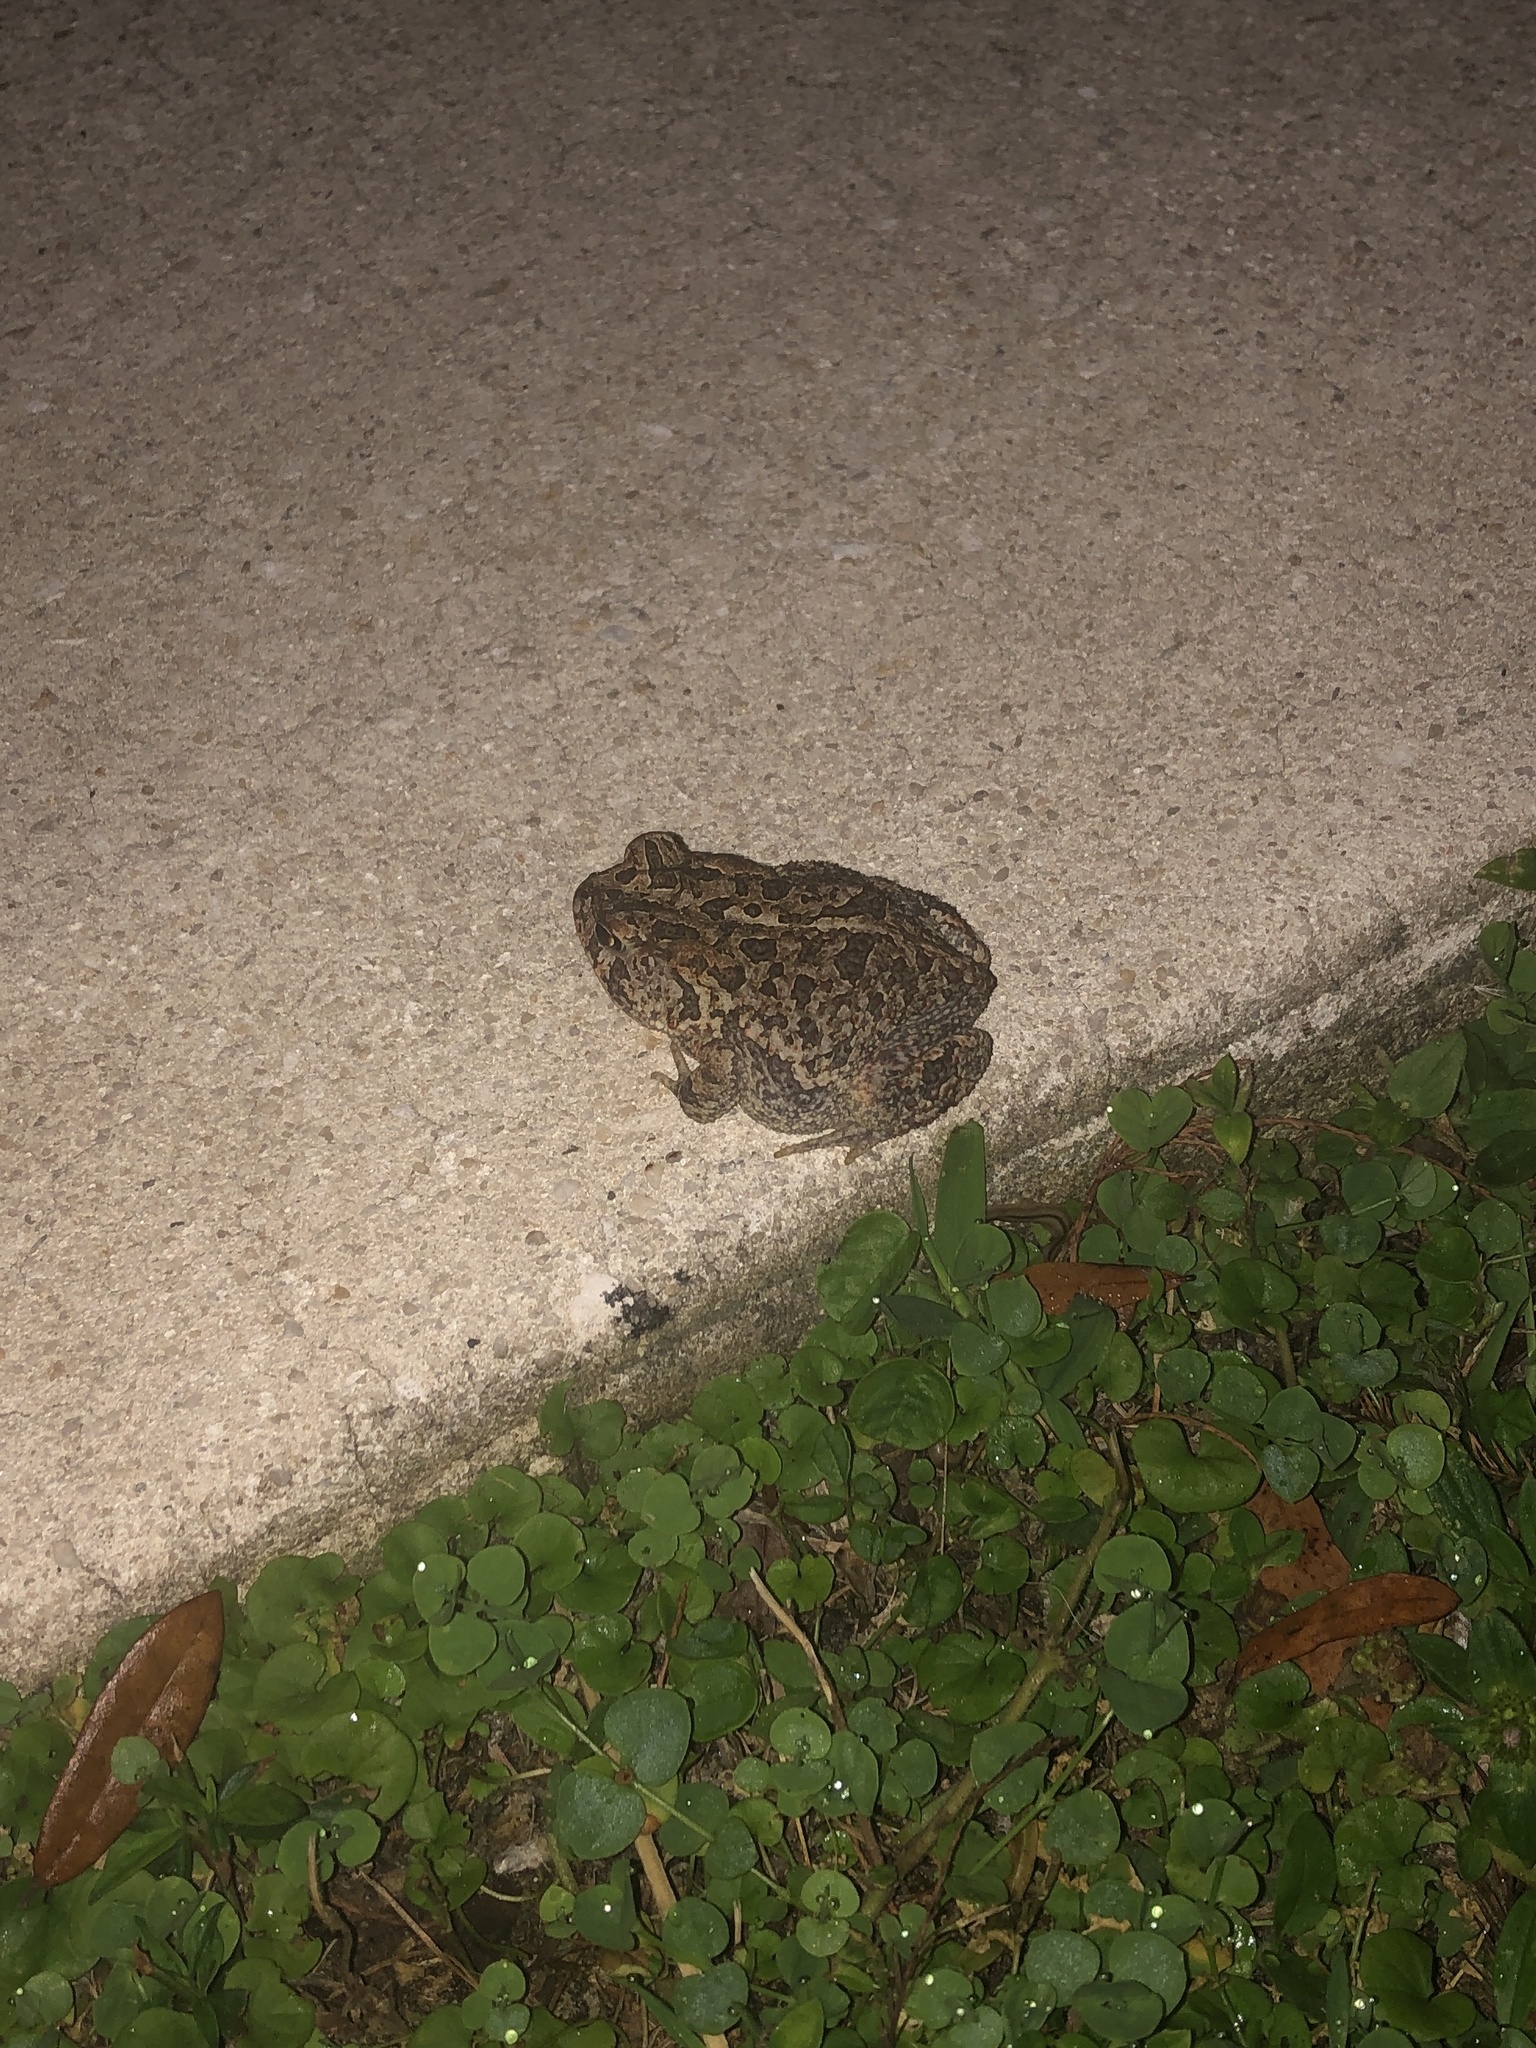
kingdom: Animalia
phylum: Chordata
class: Amphibia
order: Anura
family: Bufonidae
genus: Anaxyrus
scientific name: Anaxyrus terrestris
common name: Southern toad
